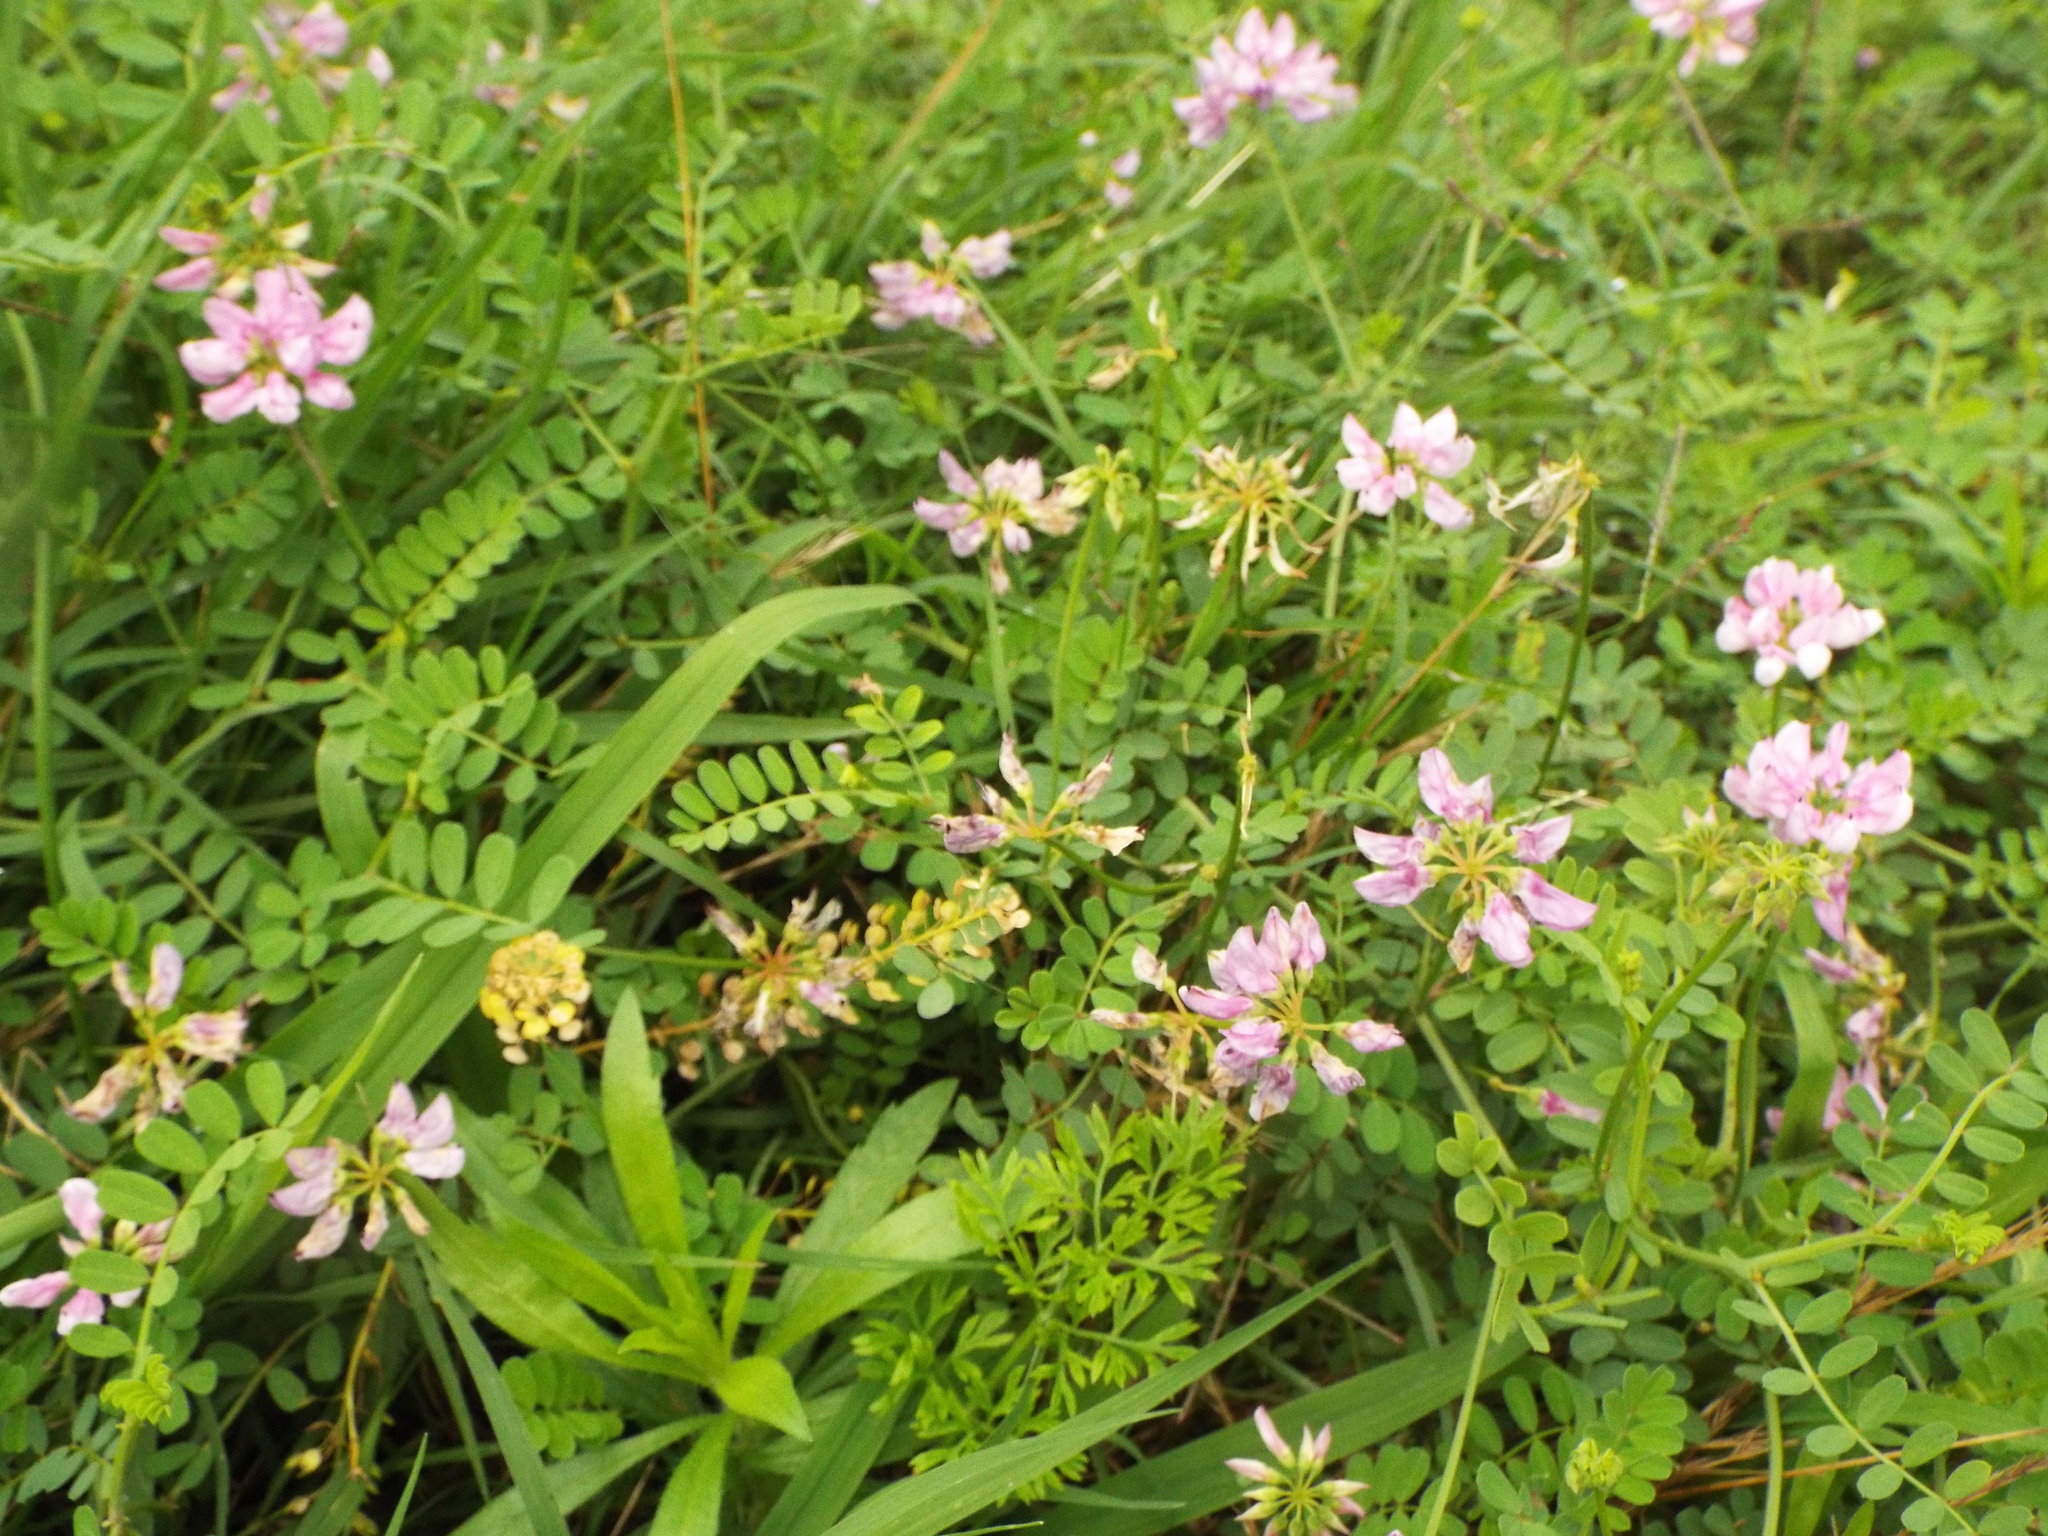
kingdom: Plantae
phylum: Tracheophyta
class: Magnoliopsida
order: Fabales
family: Fabaceae
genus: Coronilla
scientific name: Coronilla varia
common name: Crownvetch
